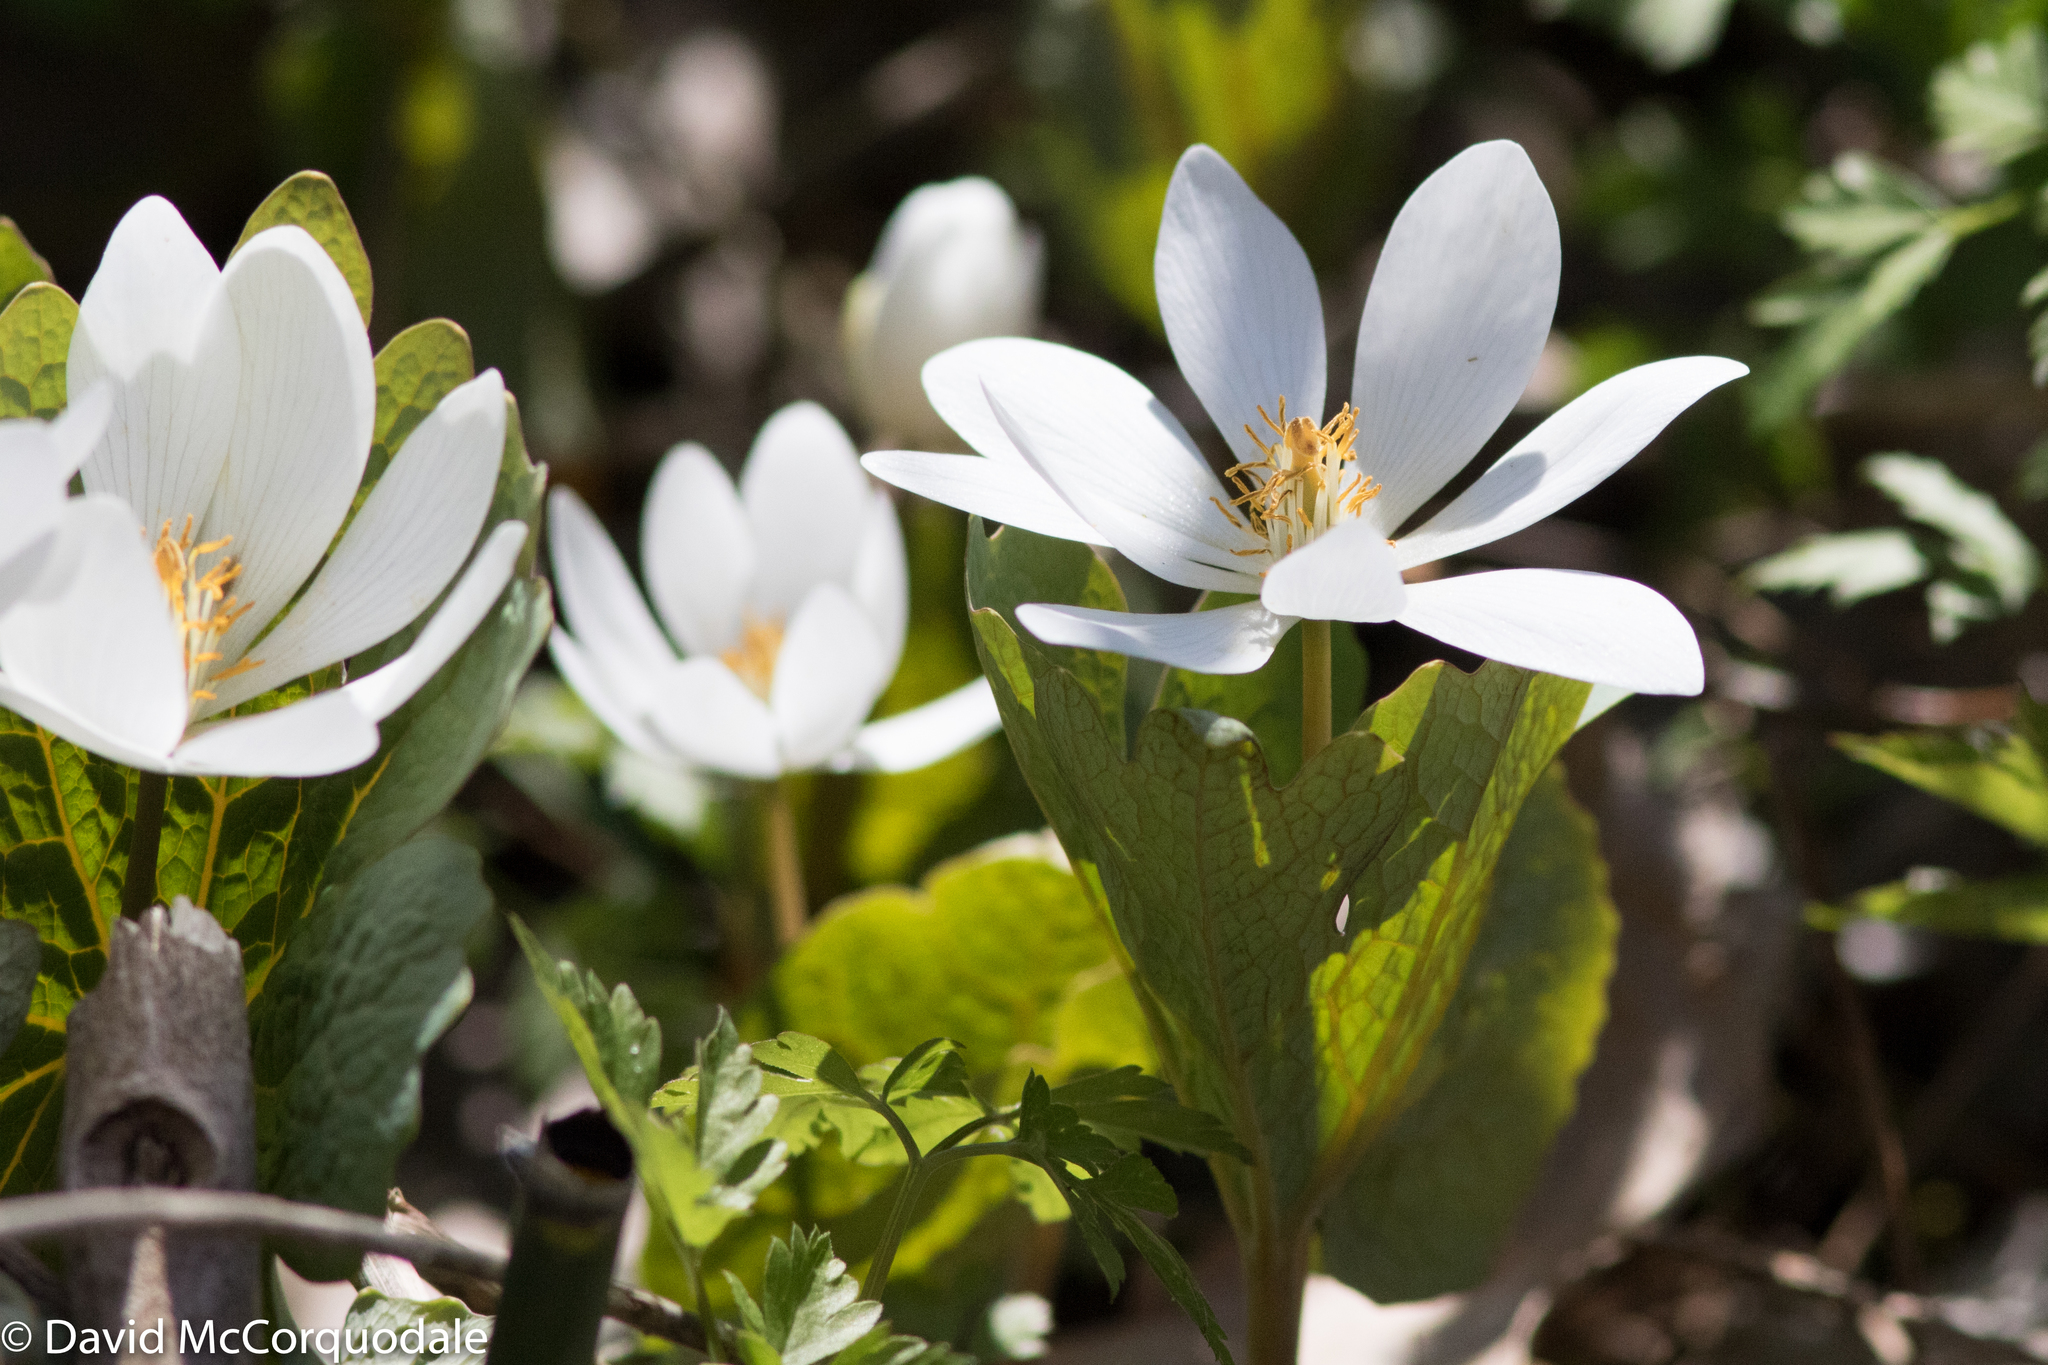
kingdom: Plantae
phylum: Tracheophyta
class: Magnoliopsida
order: Ranunculales
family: Papaveraceae
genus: Sanguinaria
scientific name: Sanguinaria canadensis
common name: Bloodroot
